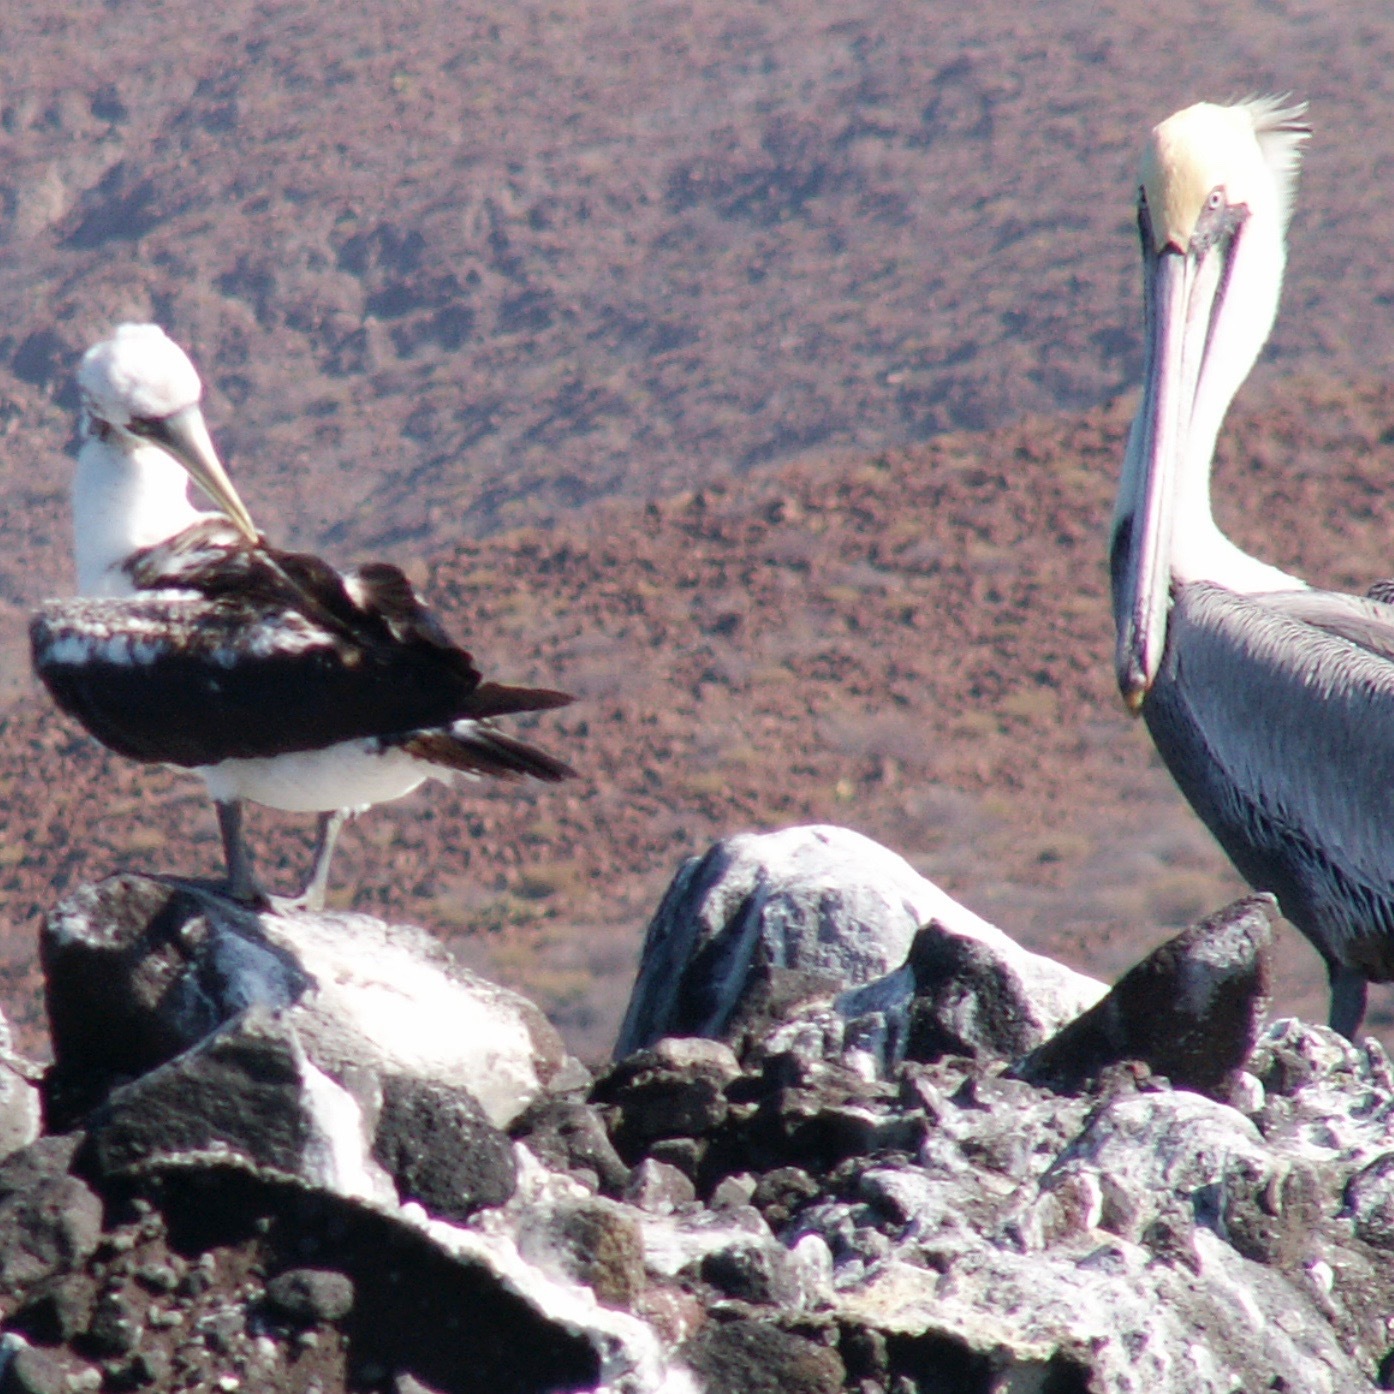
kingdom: Animalia
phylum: Chordata
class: Aves
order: Suliformes
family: Sulidae
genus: Sula
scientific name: Sula dactylatra
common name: Masked booby
